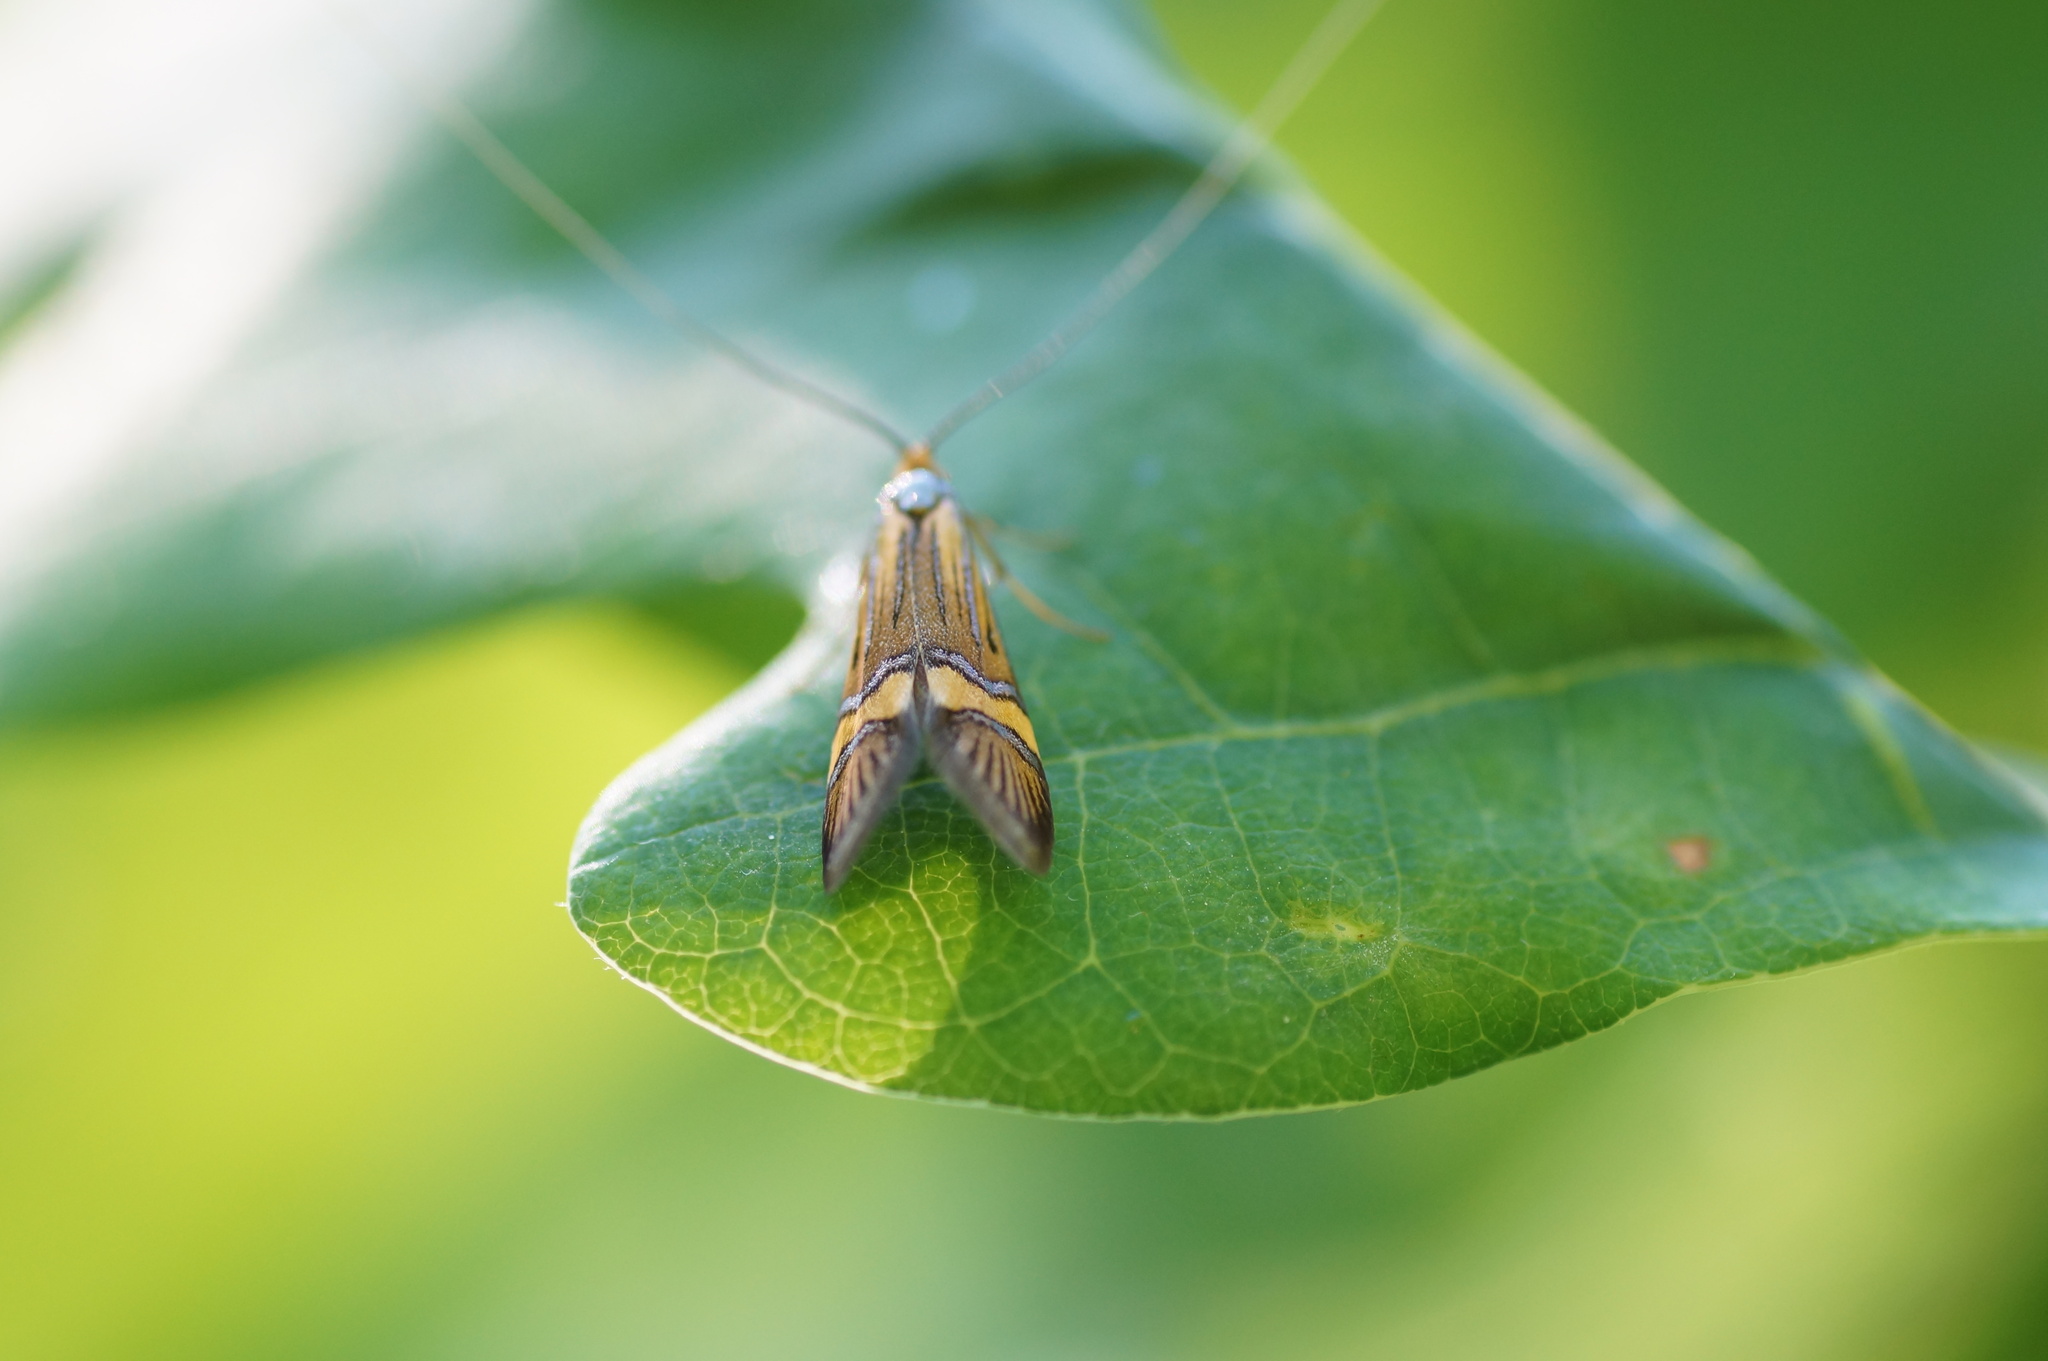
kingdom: Animalia
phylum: Arthropoda
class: Insecta
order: Lepidoptera
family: Adelidae
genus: Nemophora
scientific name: Nemophora degeerella
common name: Yellow-barred long-horn
